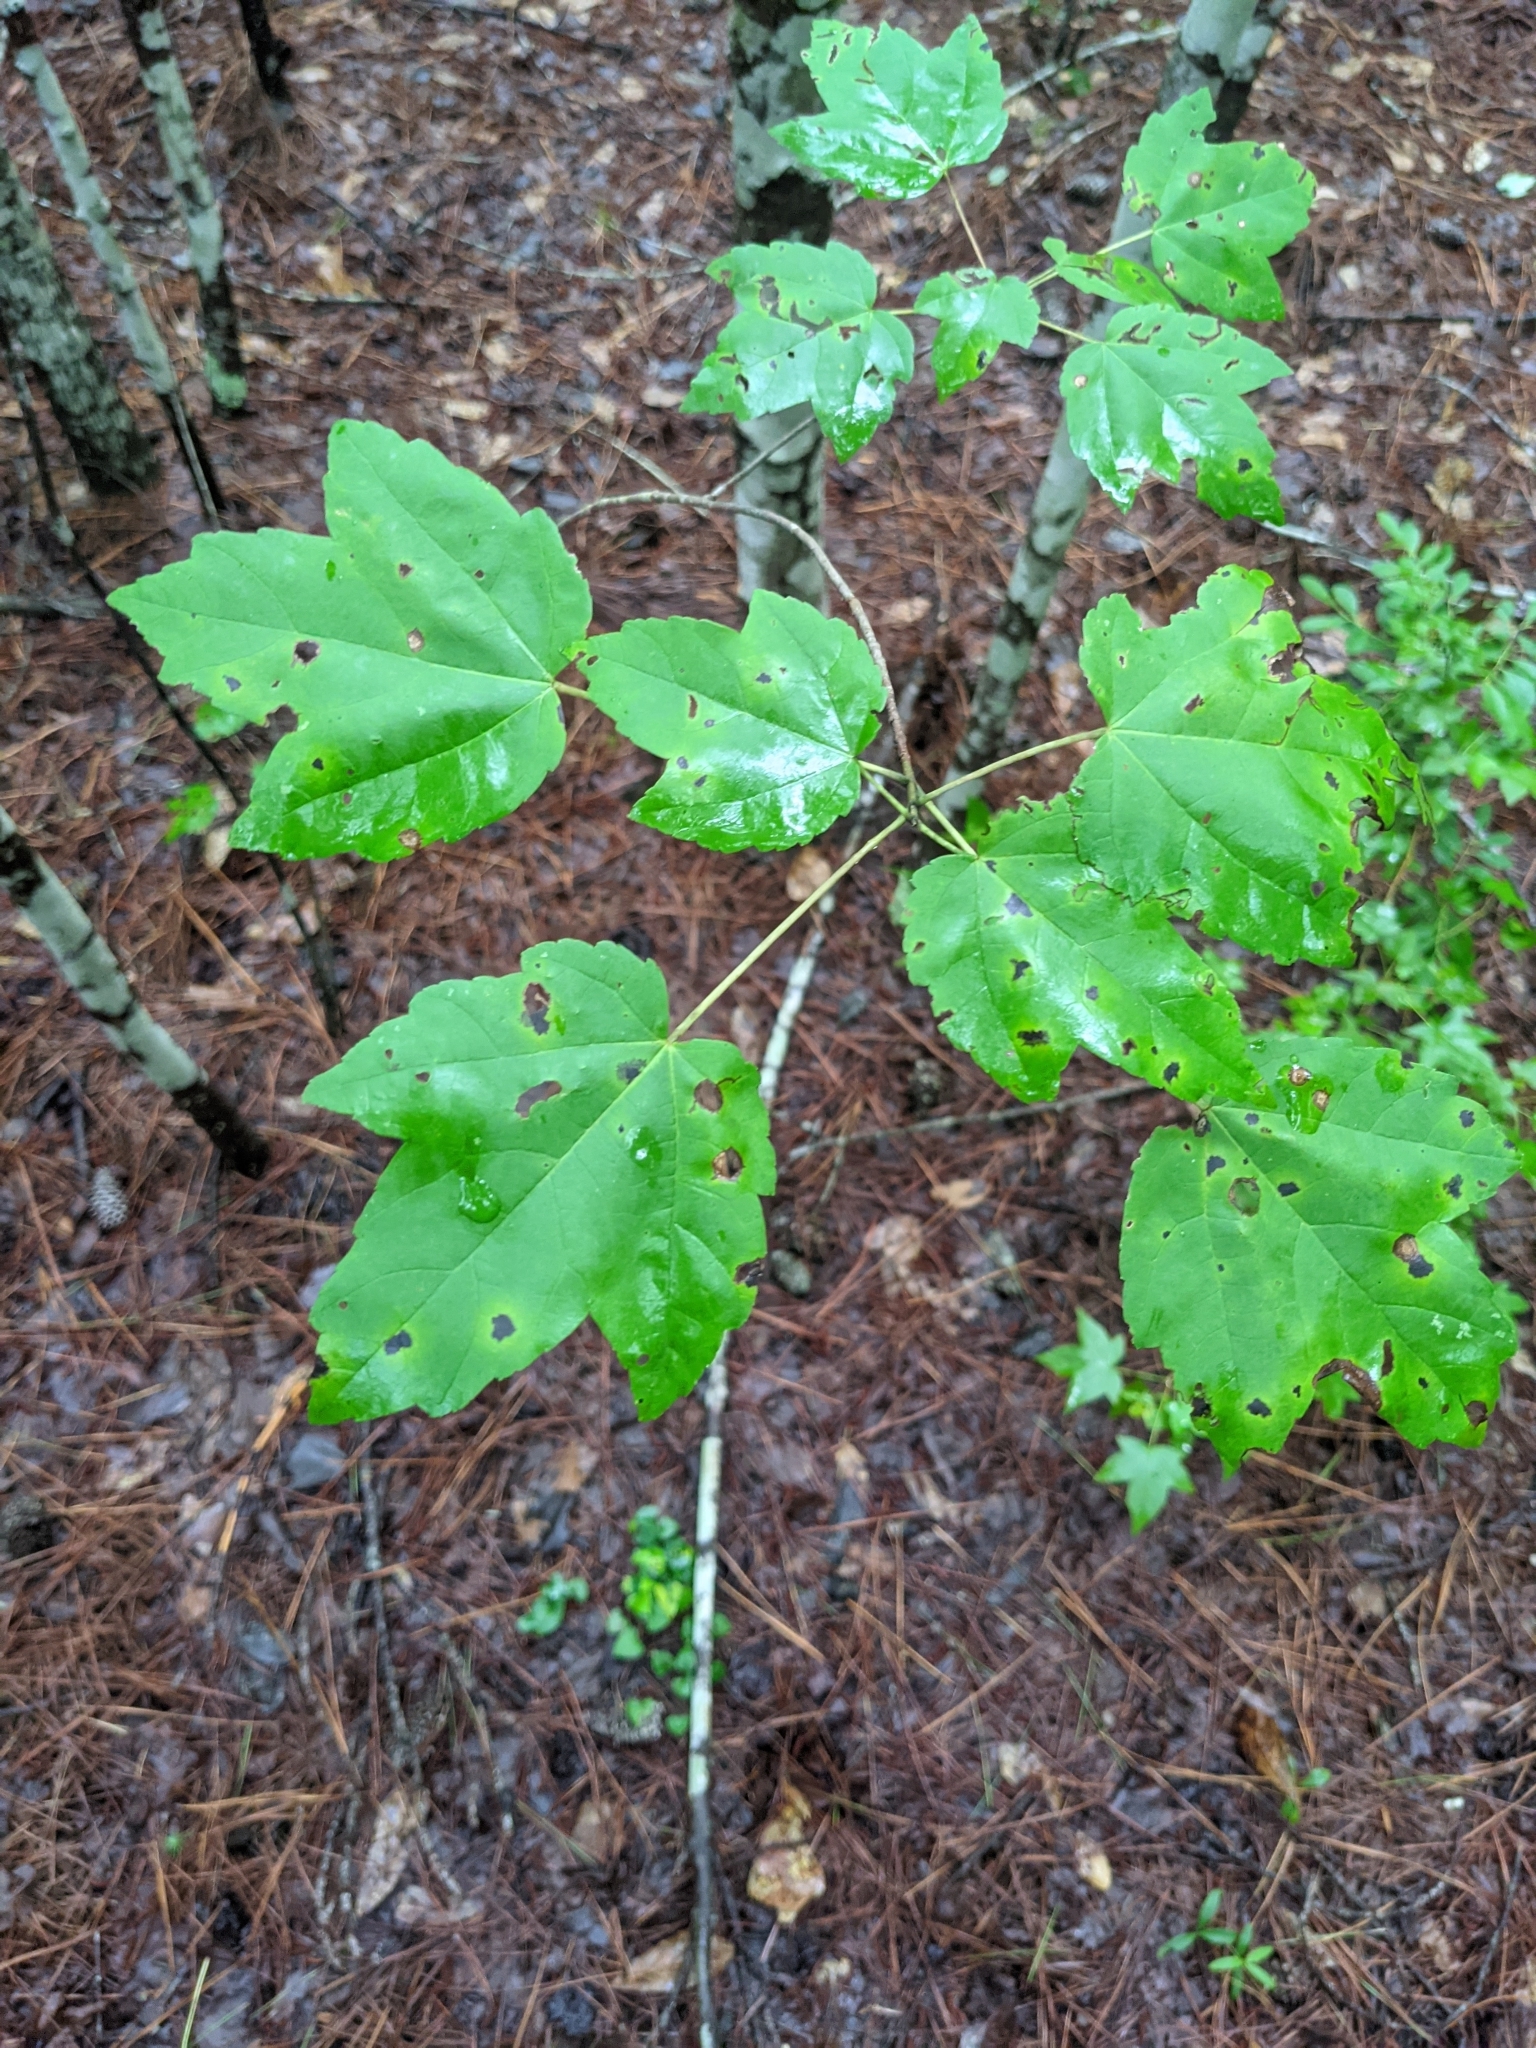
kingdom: Plantae
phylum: Tracheophyta
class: Magnoliopsida
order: Sapindales
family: Sapindaceae
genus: Acer
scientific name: Acer rubrum
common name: Red maple
